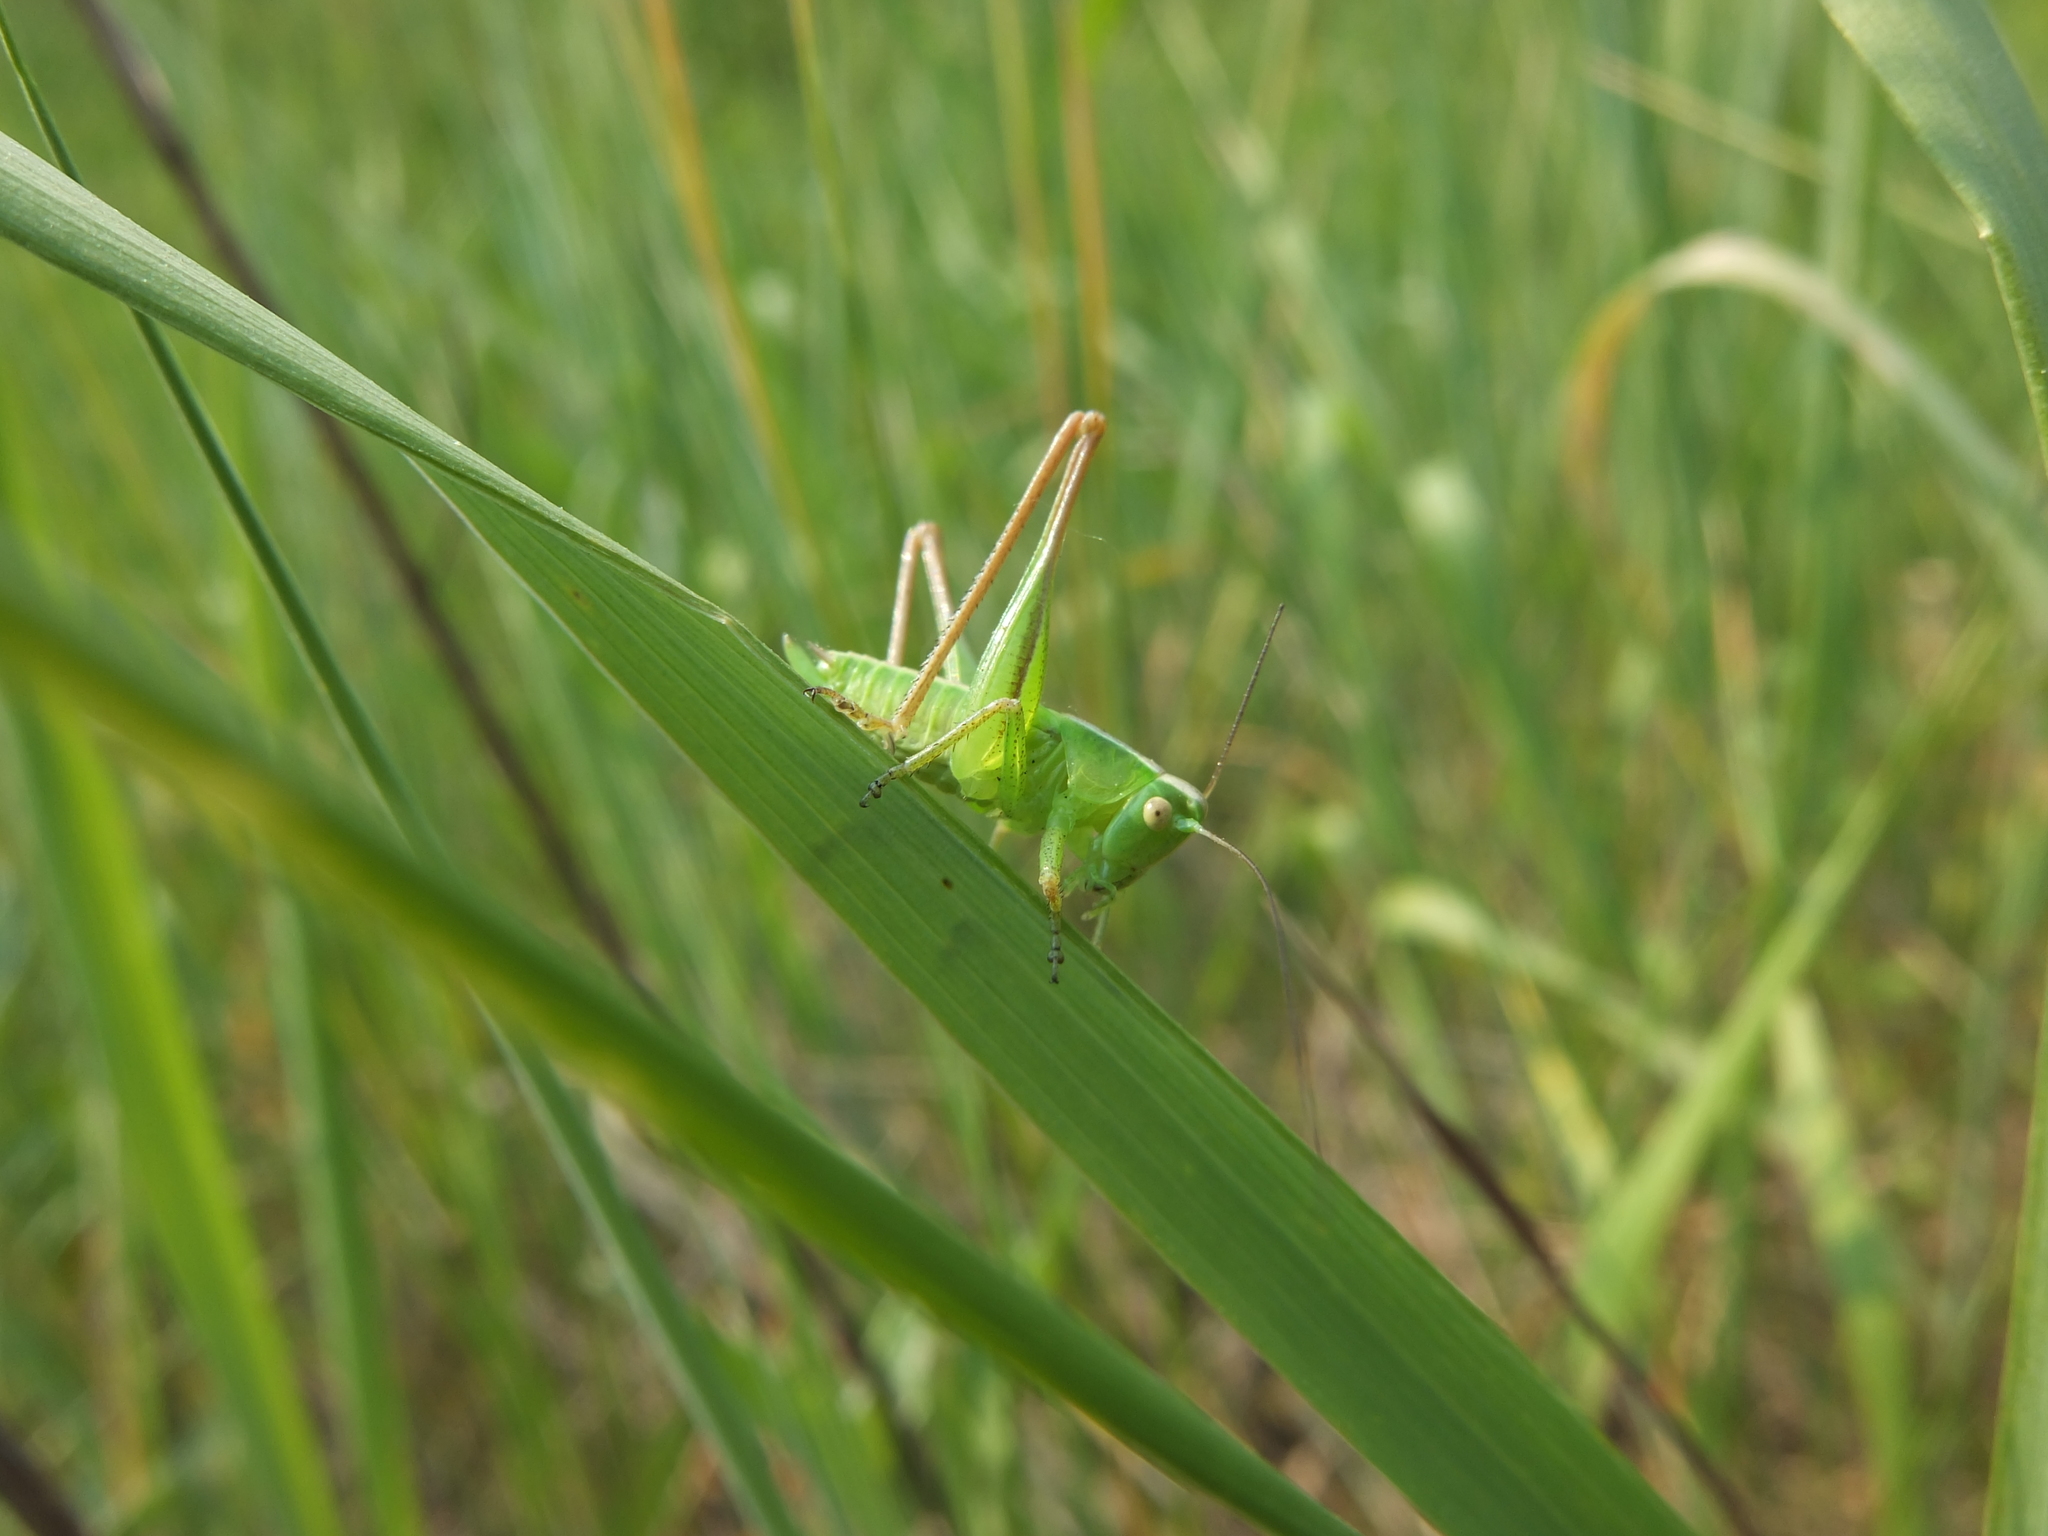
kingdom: Animalia
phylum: Arthropoda
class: Insecta
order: Orthoptera
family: Tettigoniidae
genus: Bicolorana
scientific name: Bicolorana bicolor
